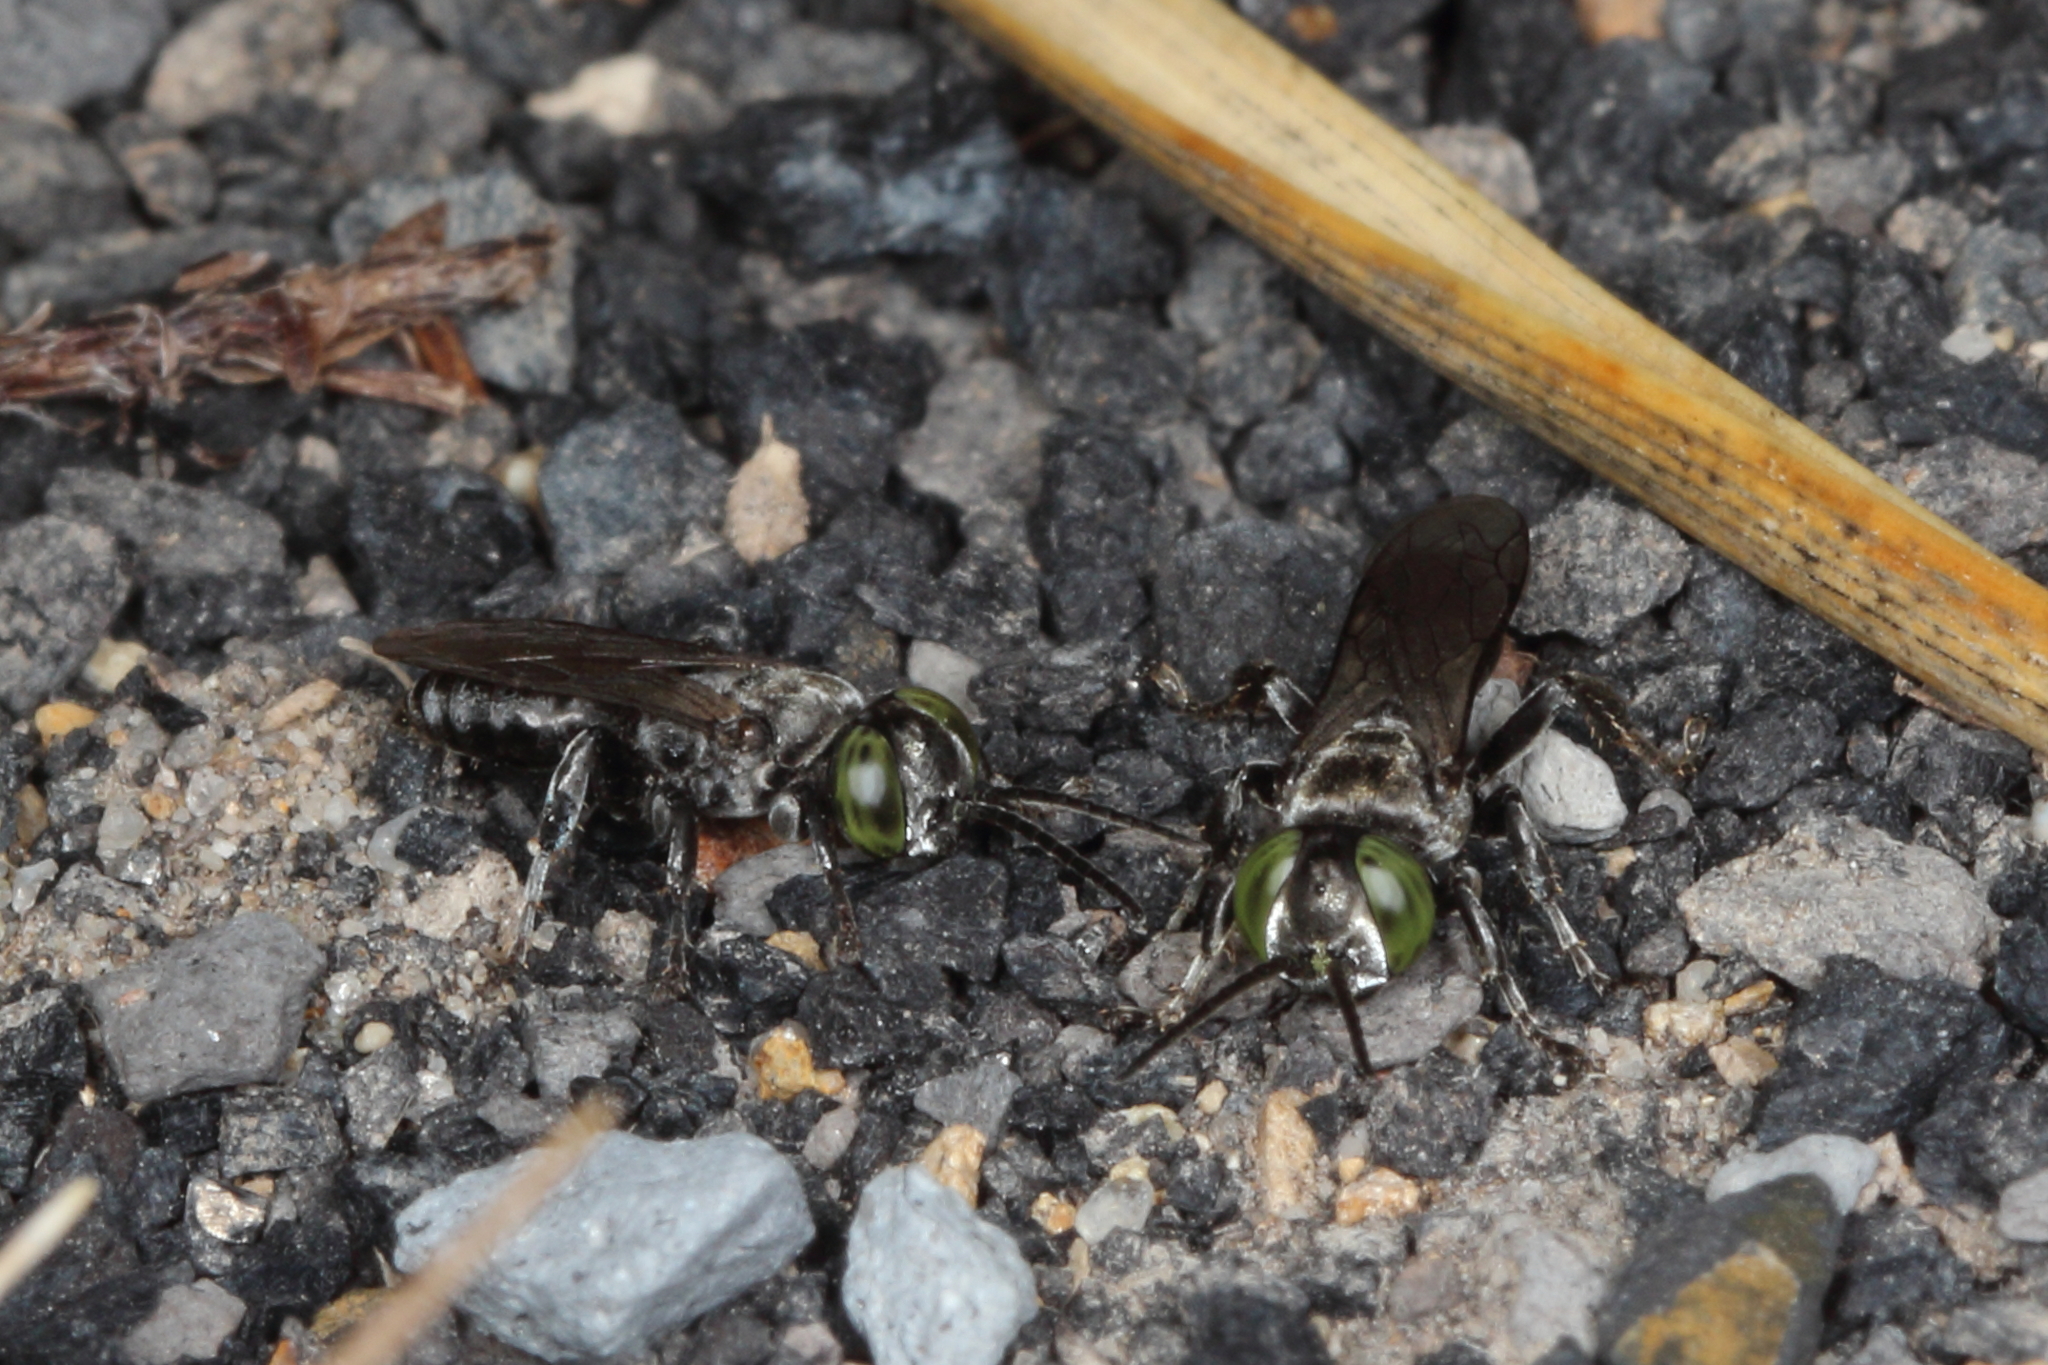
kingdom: Animalia
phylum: Arthropoda
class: Insecta
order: Hymenoptera
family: Crabronidae
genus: Tachysphex
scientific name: Tachysphex nigerrimus
